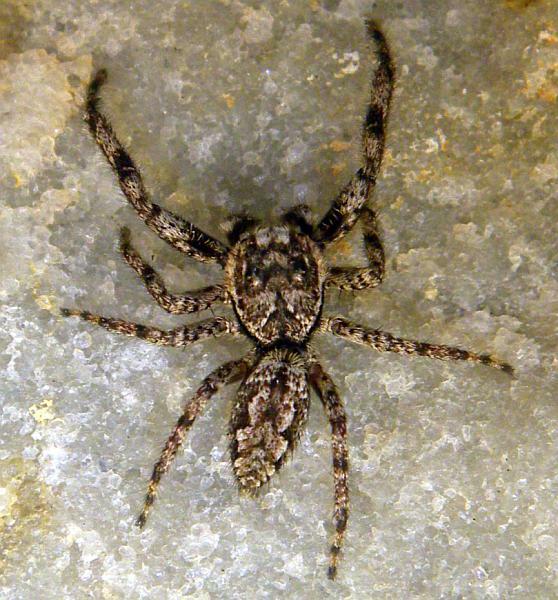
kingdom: Animalia
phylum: Arthropoda
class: Arachnida
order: Araneae
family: Salticidae
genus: Platycryptus
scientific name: Platycryptus undatus
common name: Tan jumping spider
